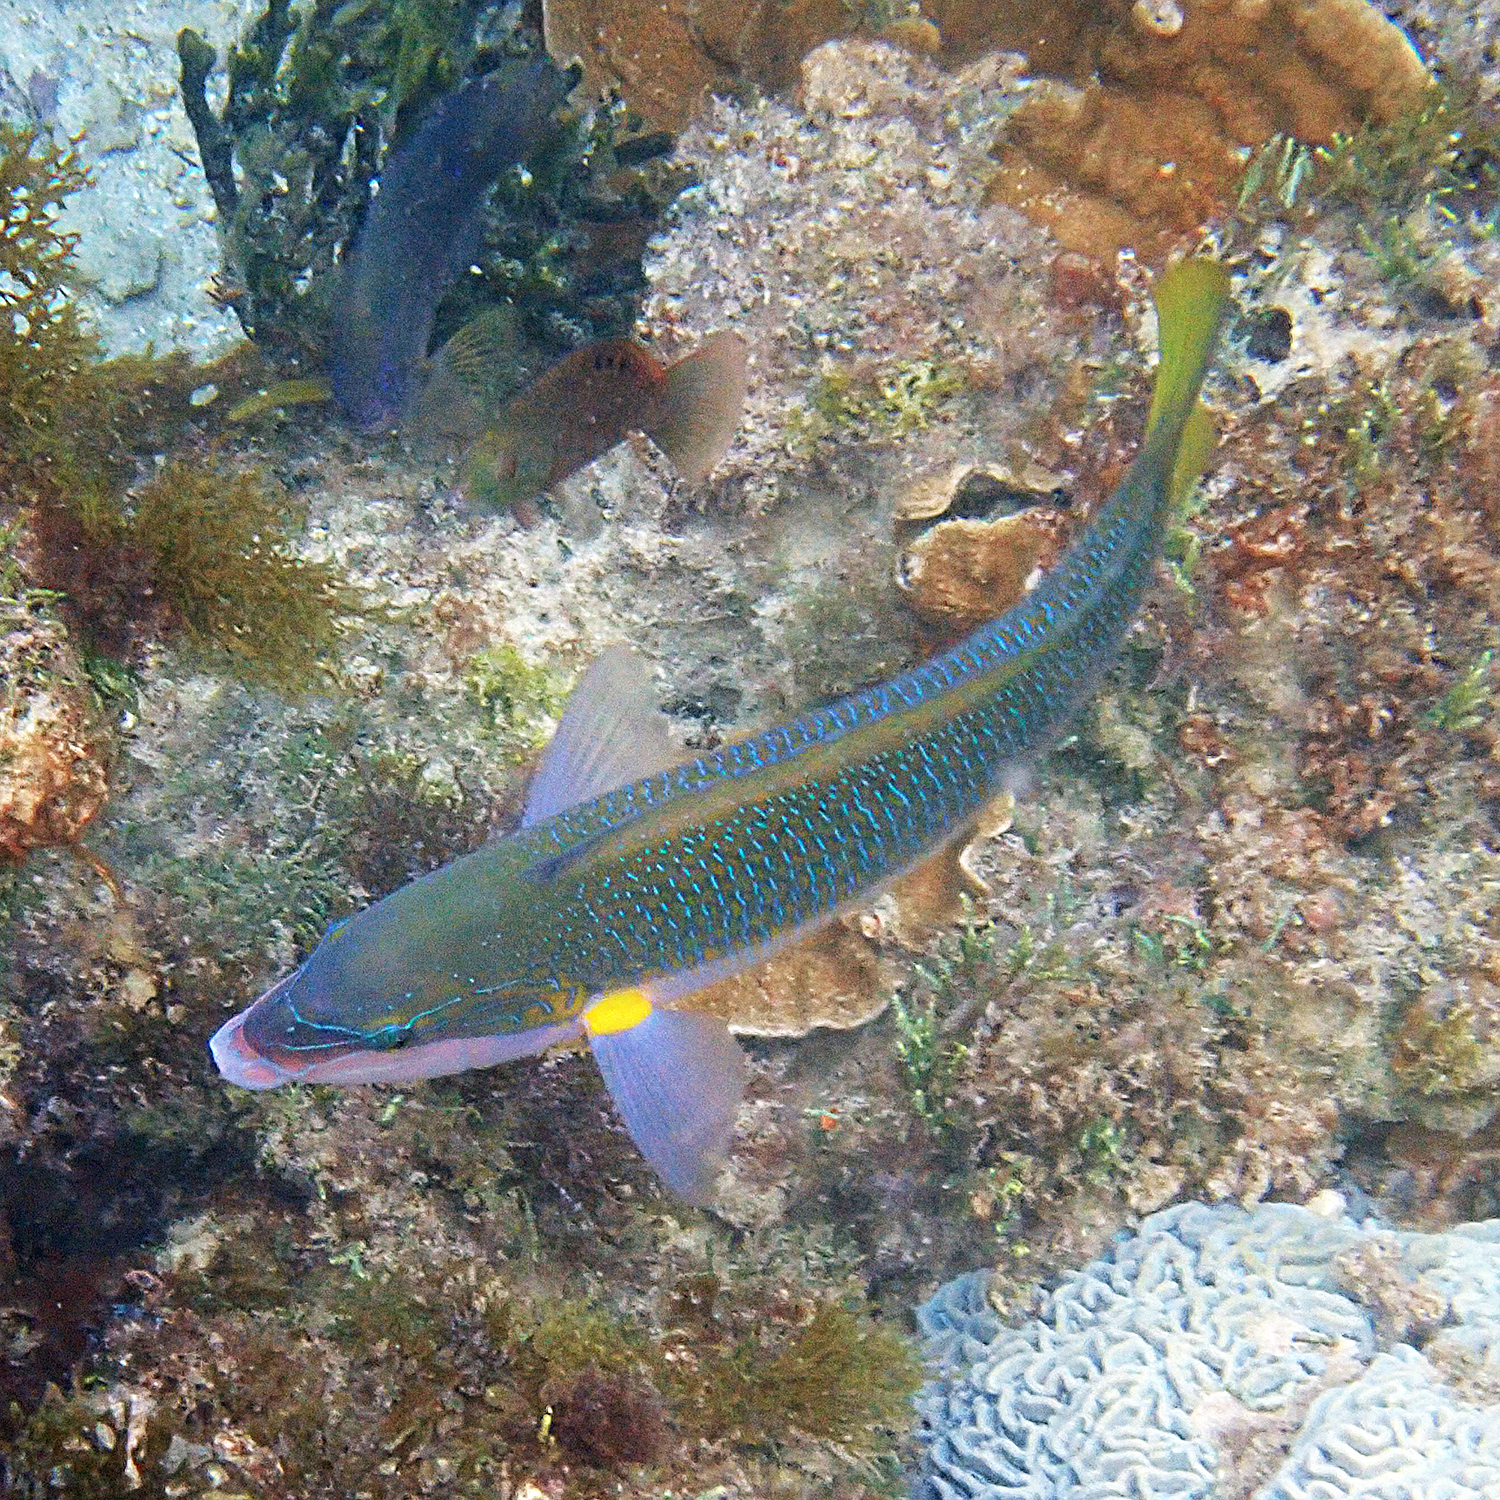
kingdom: Animalia
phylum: Chordata
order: Perciformes
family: Labridae
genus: Anampses
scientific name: Anampses elegans
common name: Elegant wrasse
